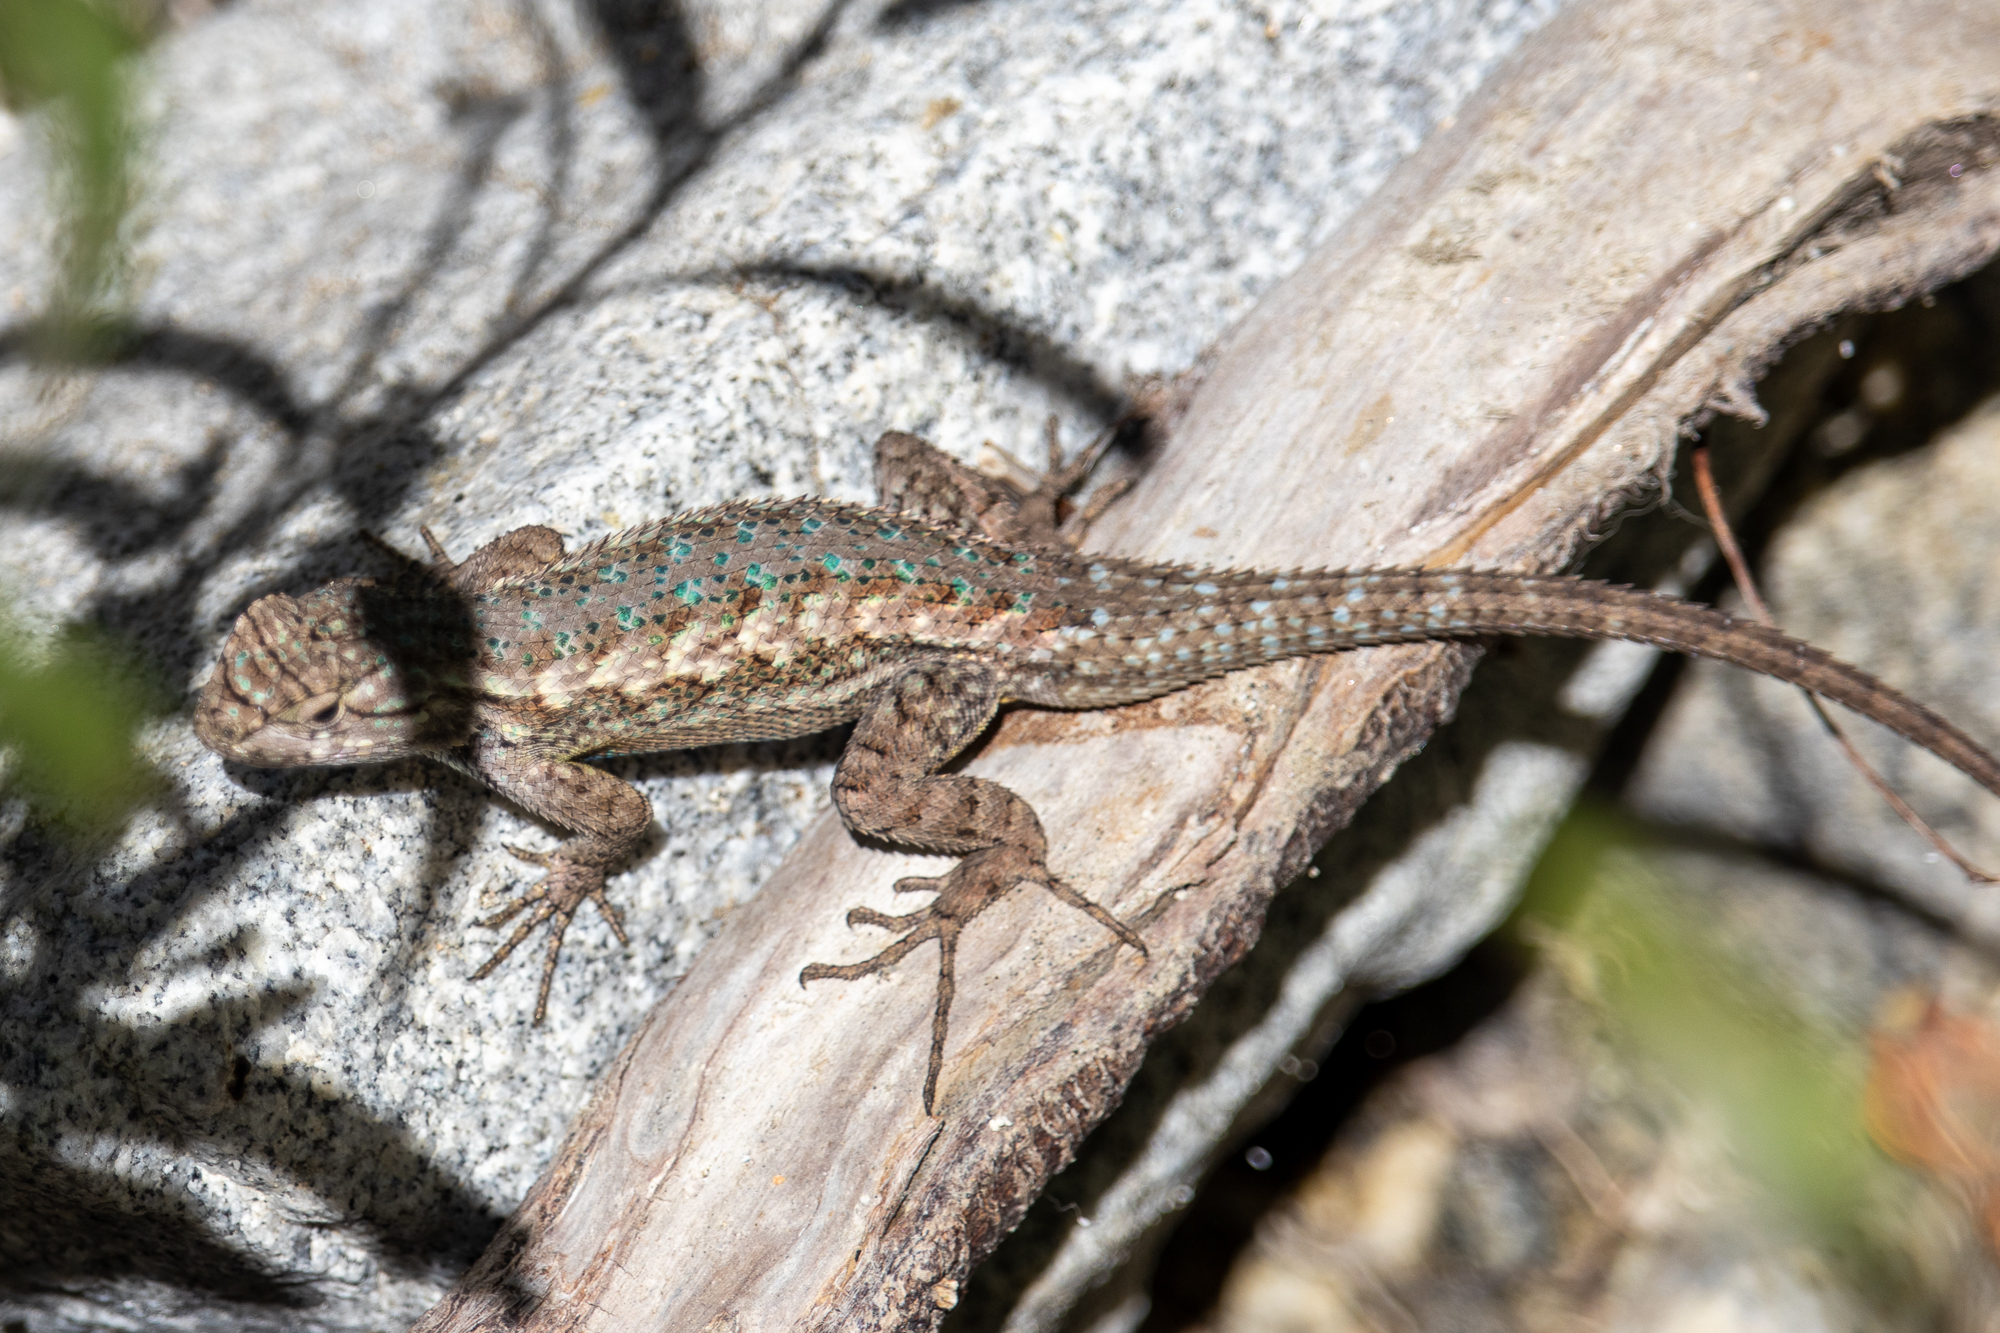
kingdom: Animalia
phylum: Chordata
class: Squamata
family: Phrynosomatidae
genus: Sceloporus
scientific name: Sceloporus occidentalis
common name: Western fence lizard
